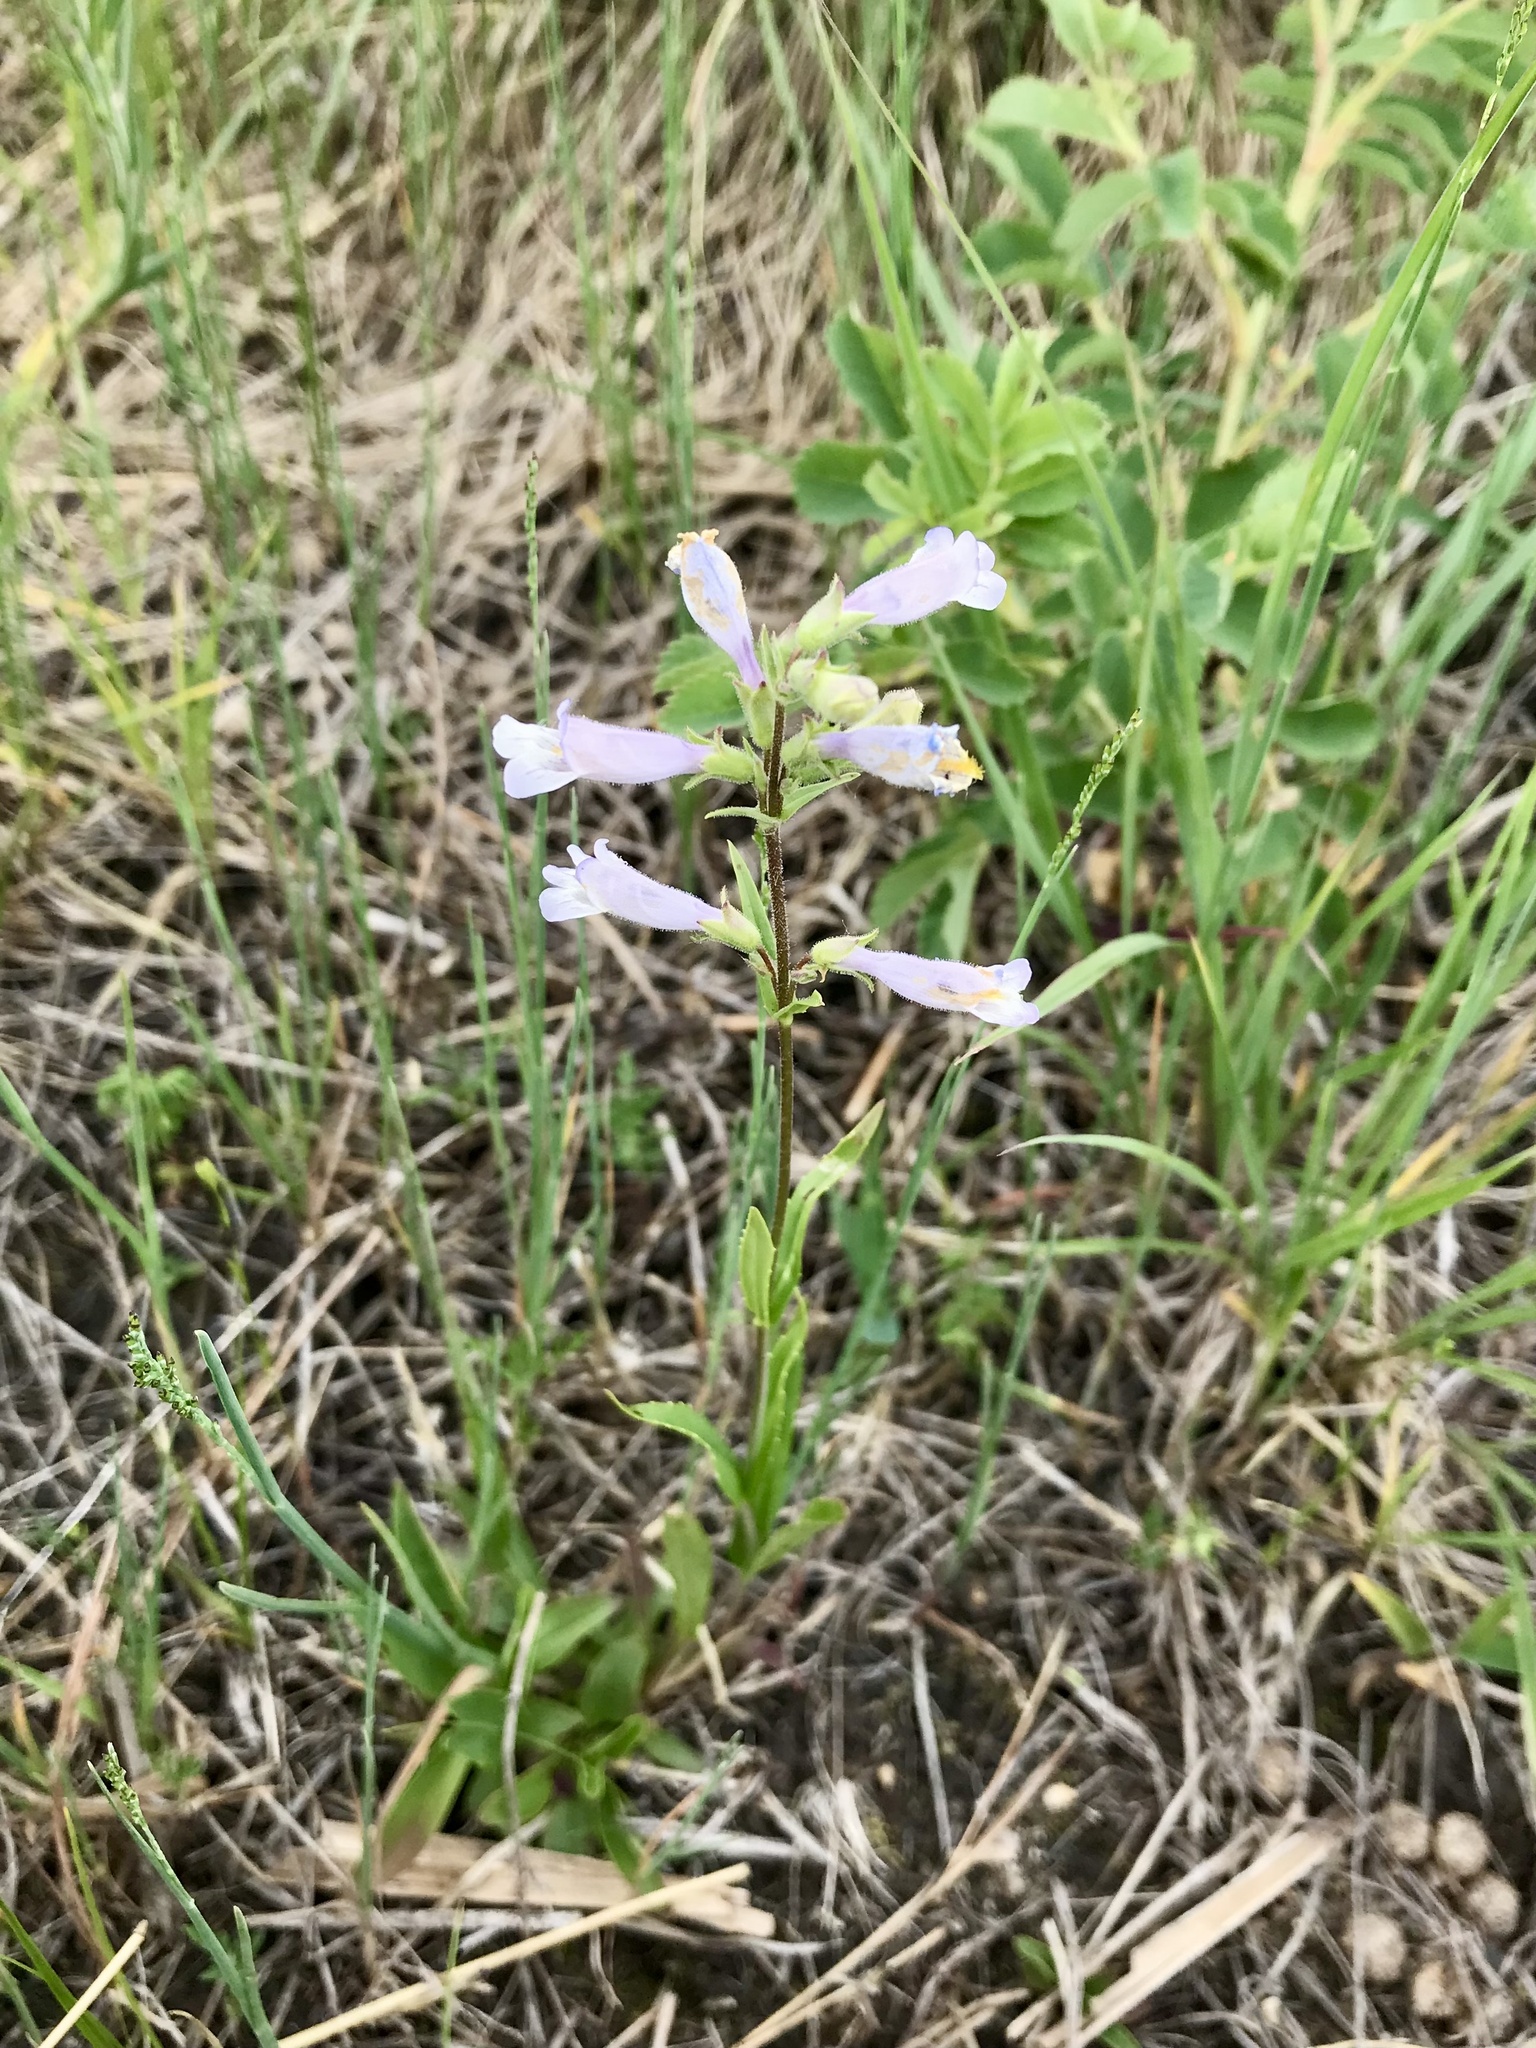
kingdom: Plantae
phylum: Tracheophyta
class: Magnoliopsida
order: Lamiales
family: Plantaginaceae
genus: Penstemon
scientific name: Penstemon gracilis
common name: Slender beardtongue
